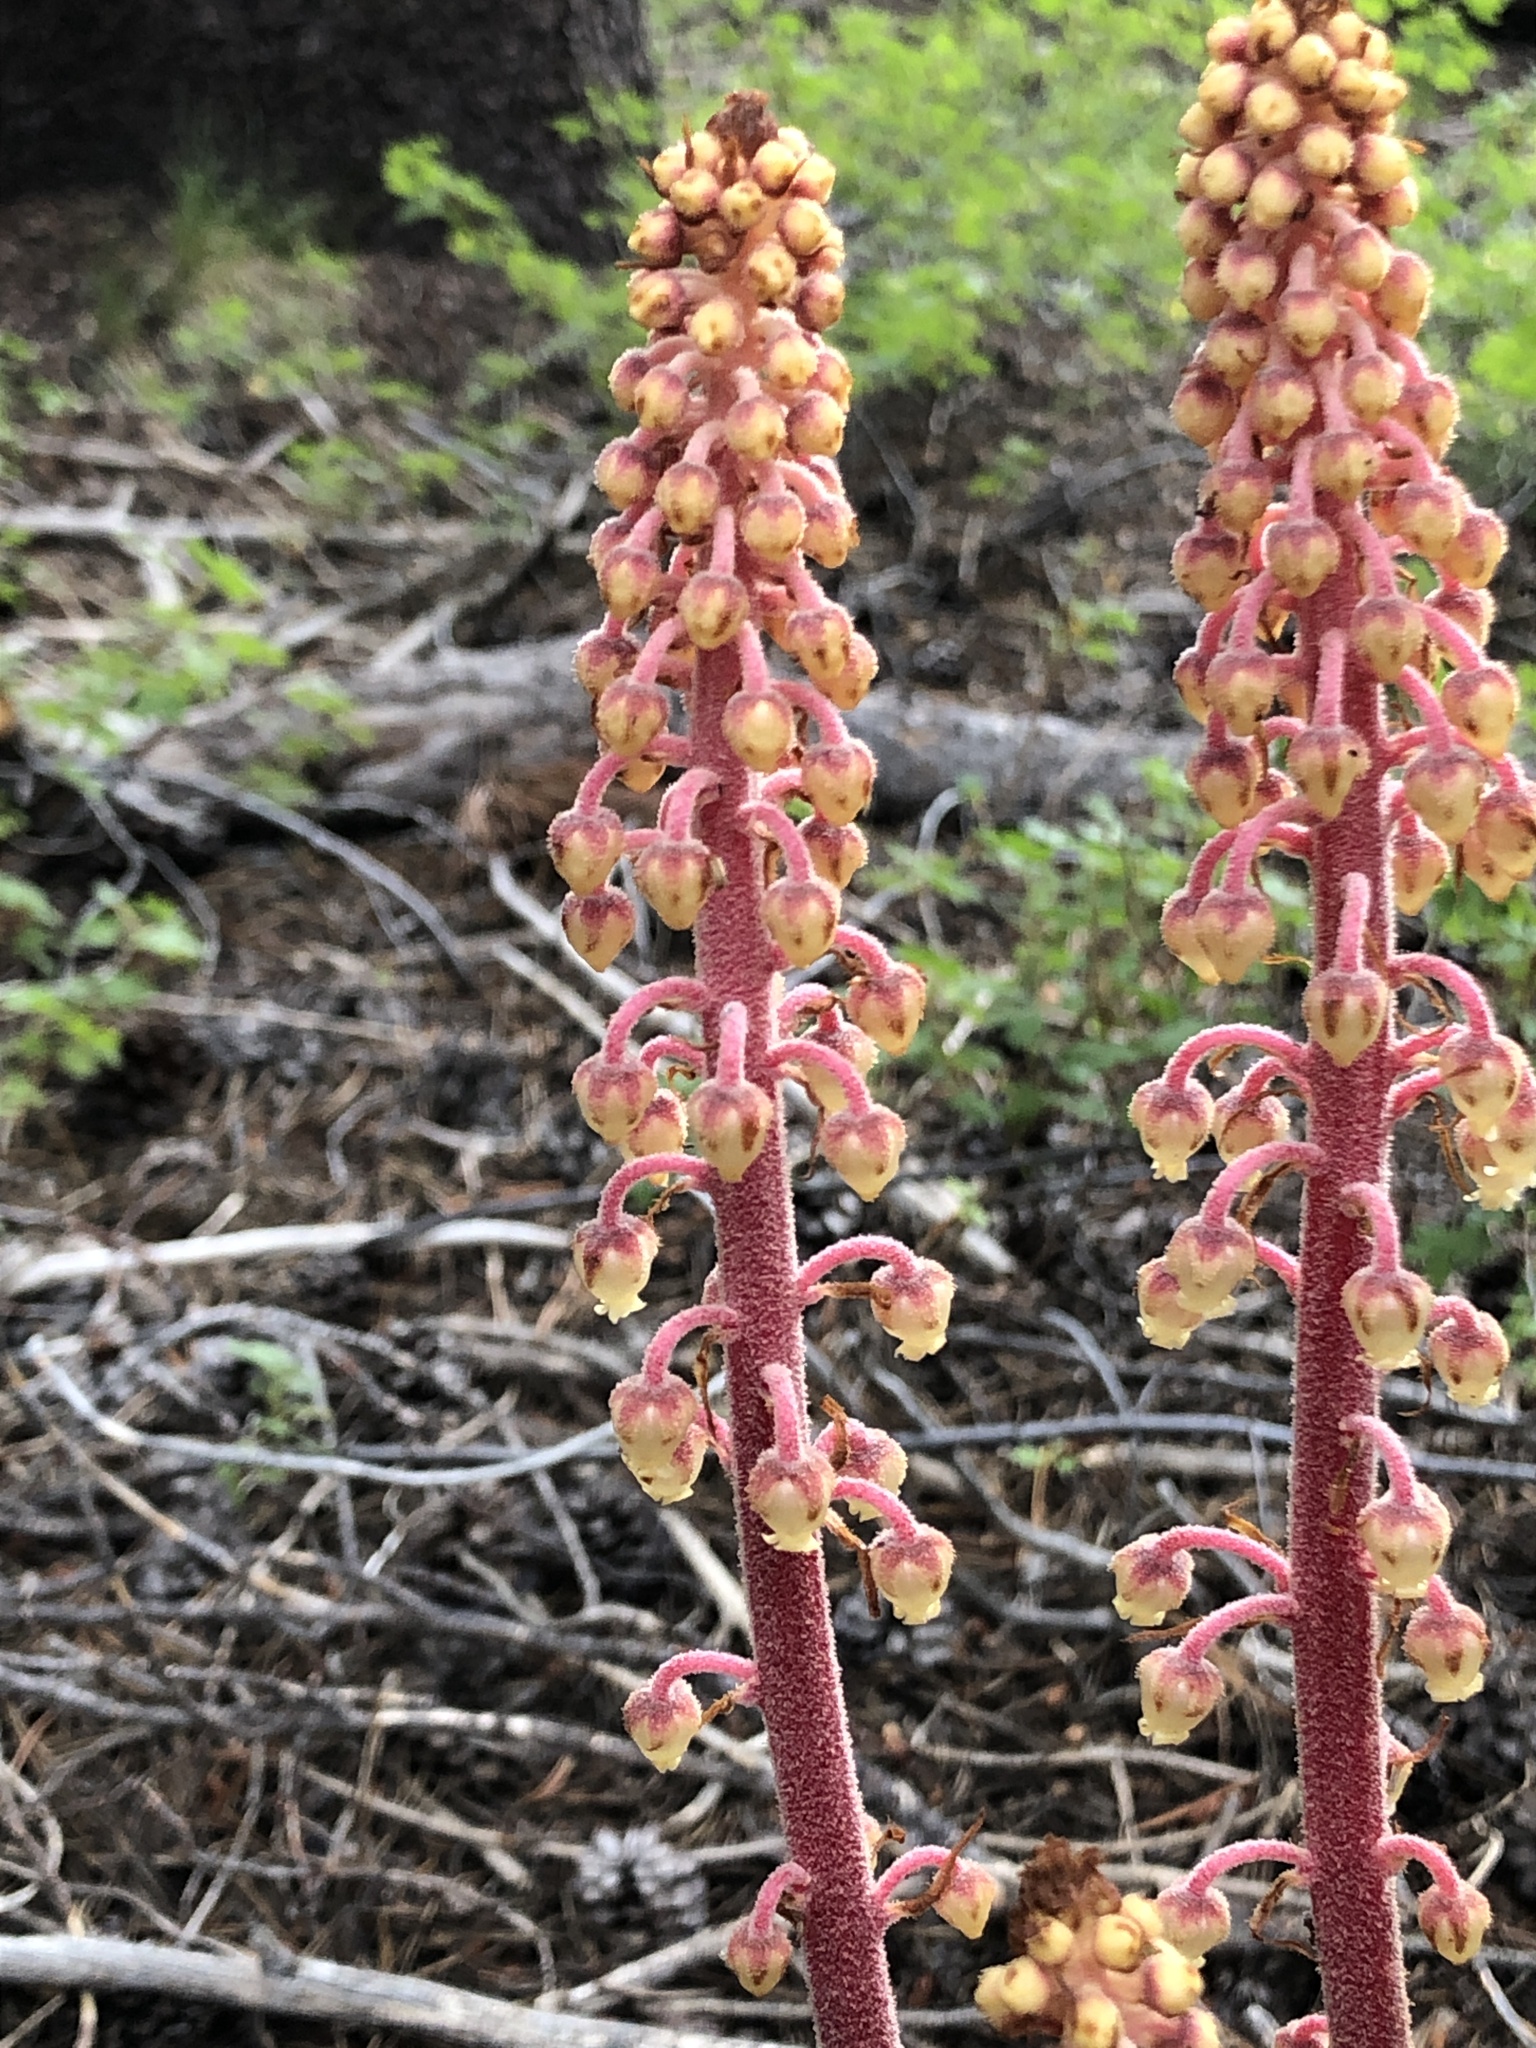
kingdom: Plantae
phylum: Tracheophyta
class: Magnoliopsida
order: Ericales
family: Ericaceae
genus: Pterospora
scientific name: Pterospora andromedea
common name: Giant bird's-nest
